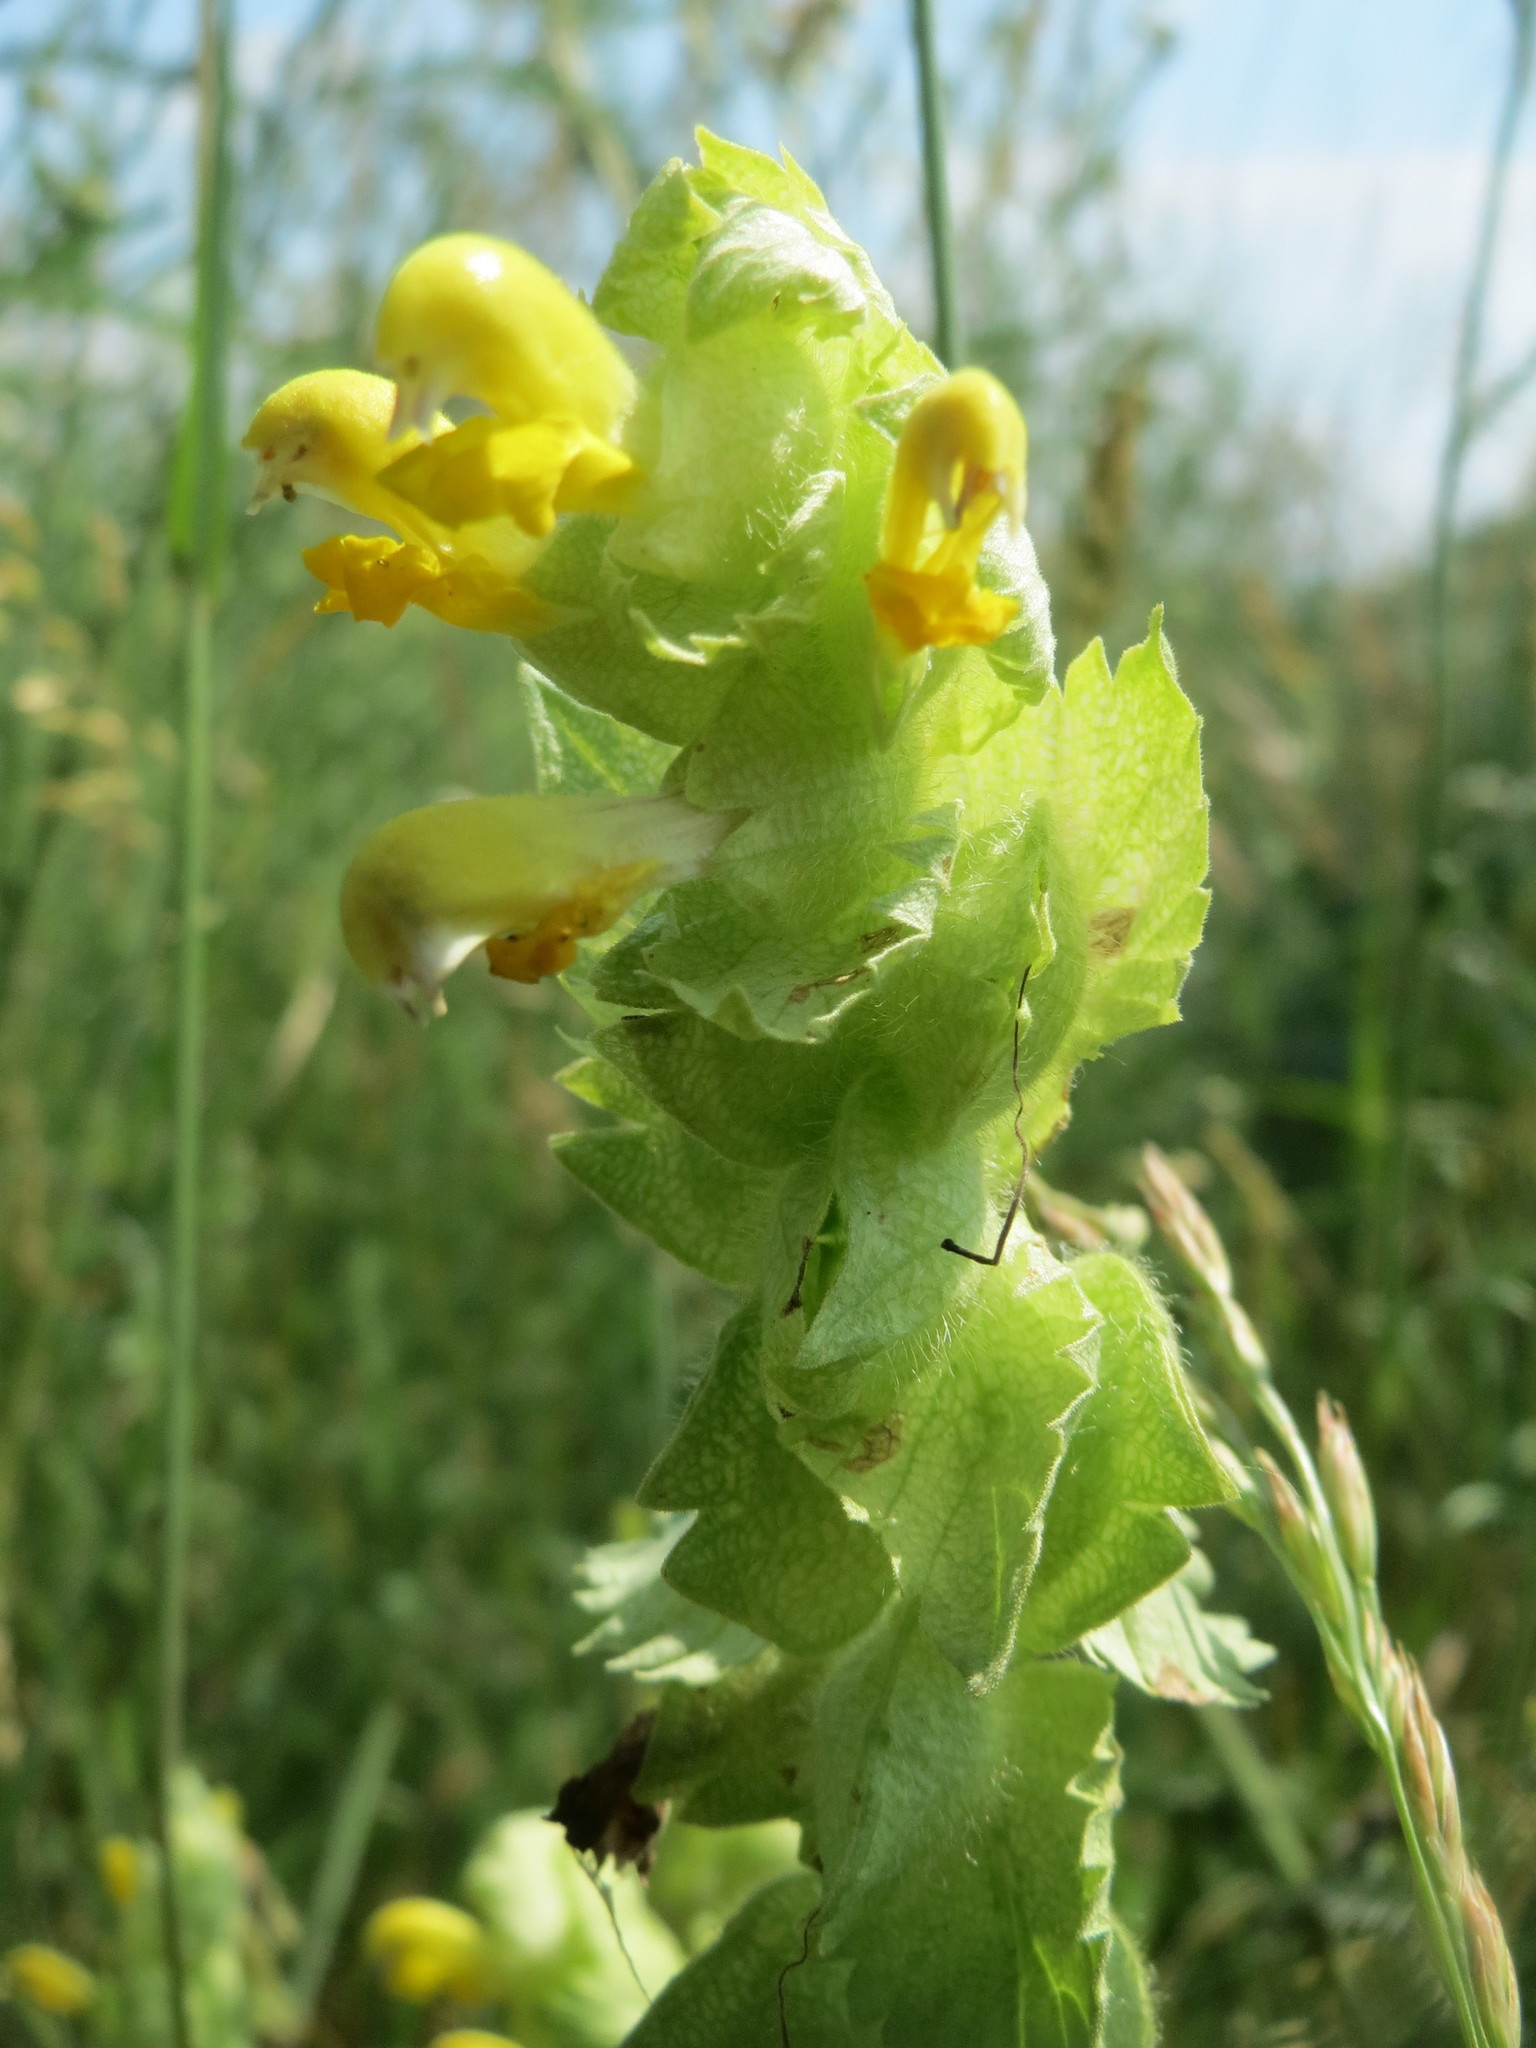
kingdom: Plantae
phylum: Tracheophyta
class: Magnoliopsida
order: Lamiales
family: Orobanchaceae
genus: Rhinanthus
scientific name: Rhinanthus alectorolophus
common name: Greater yellow-rattle
